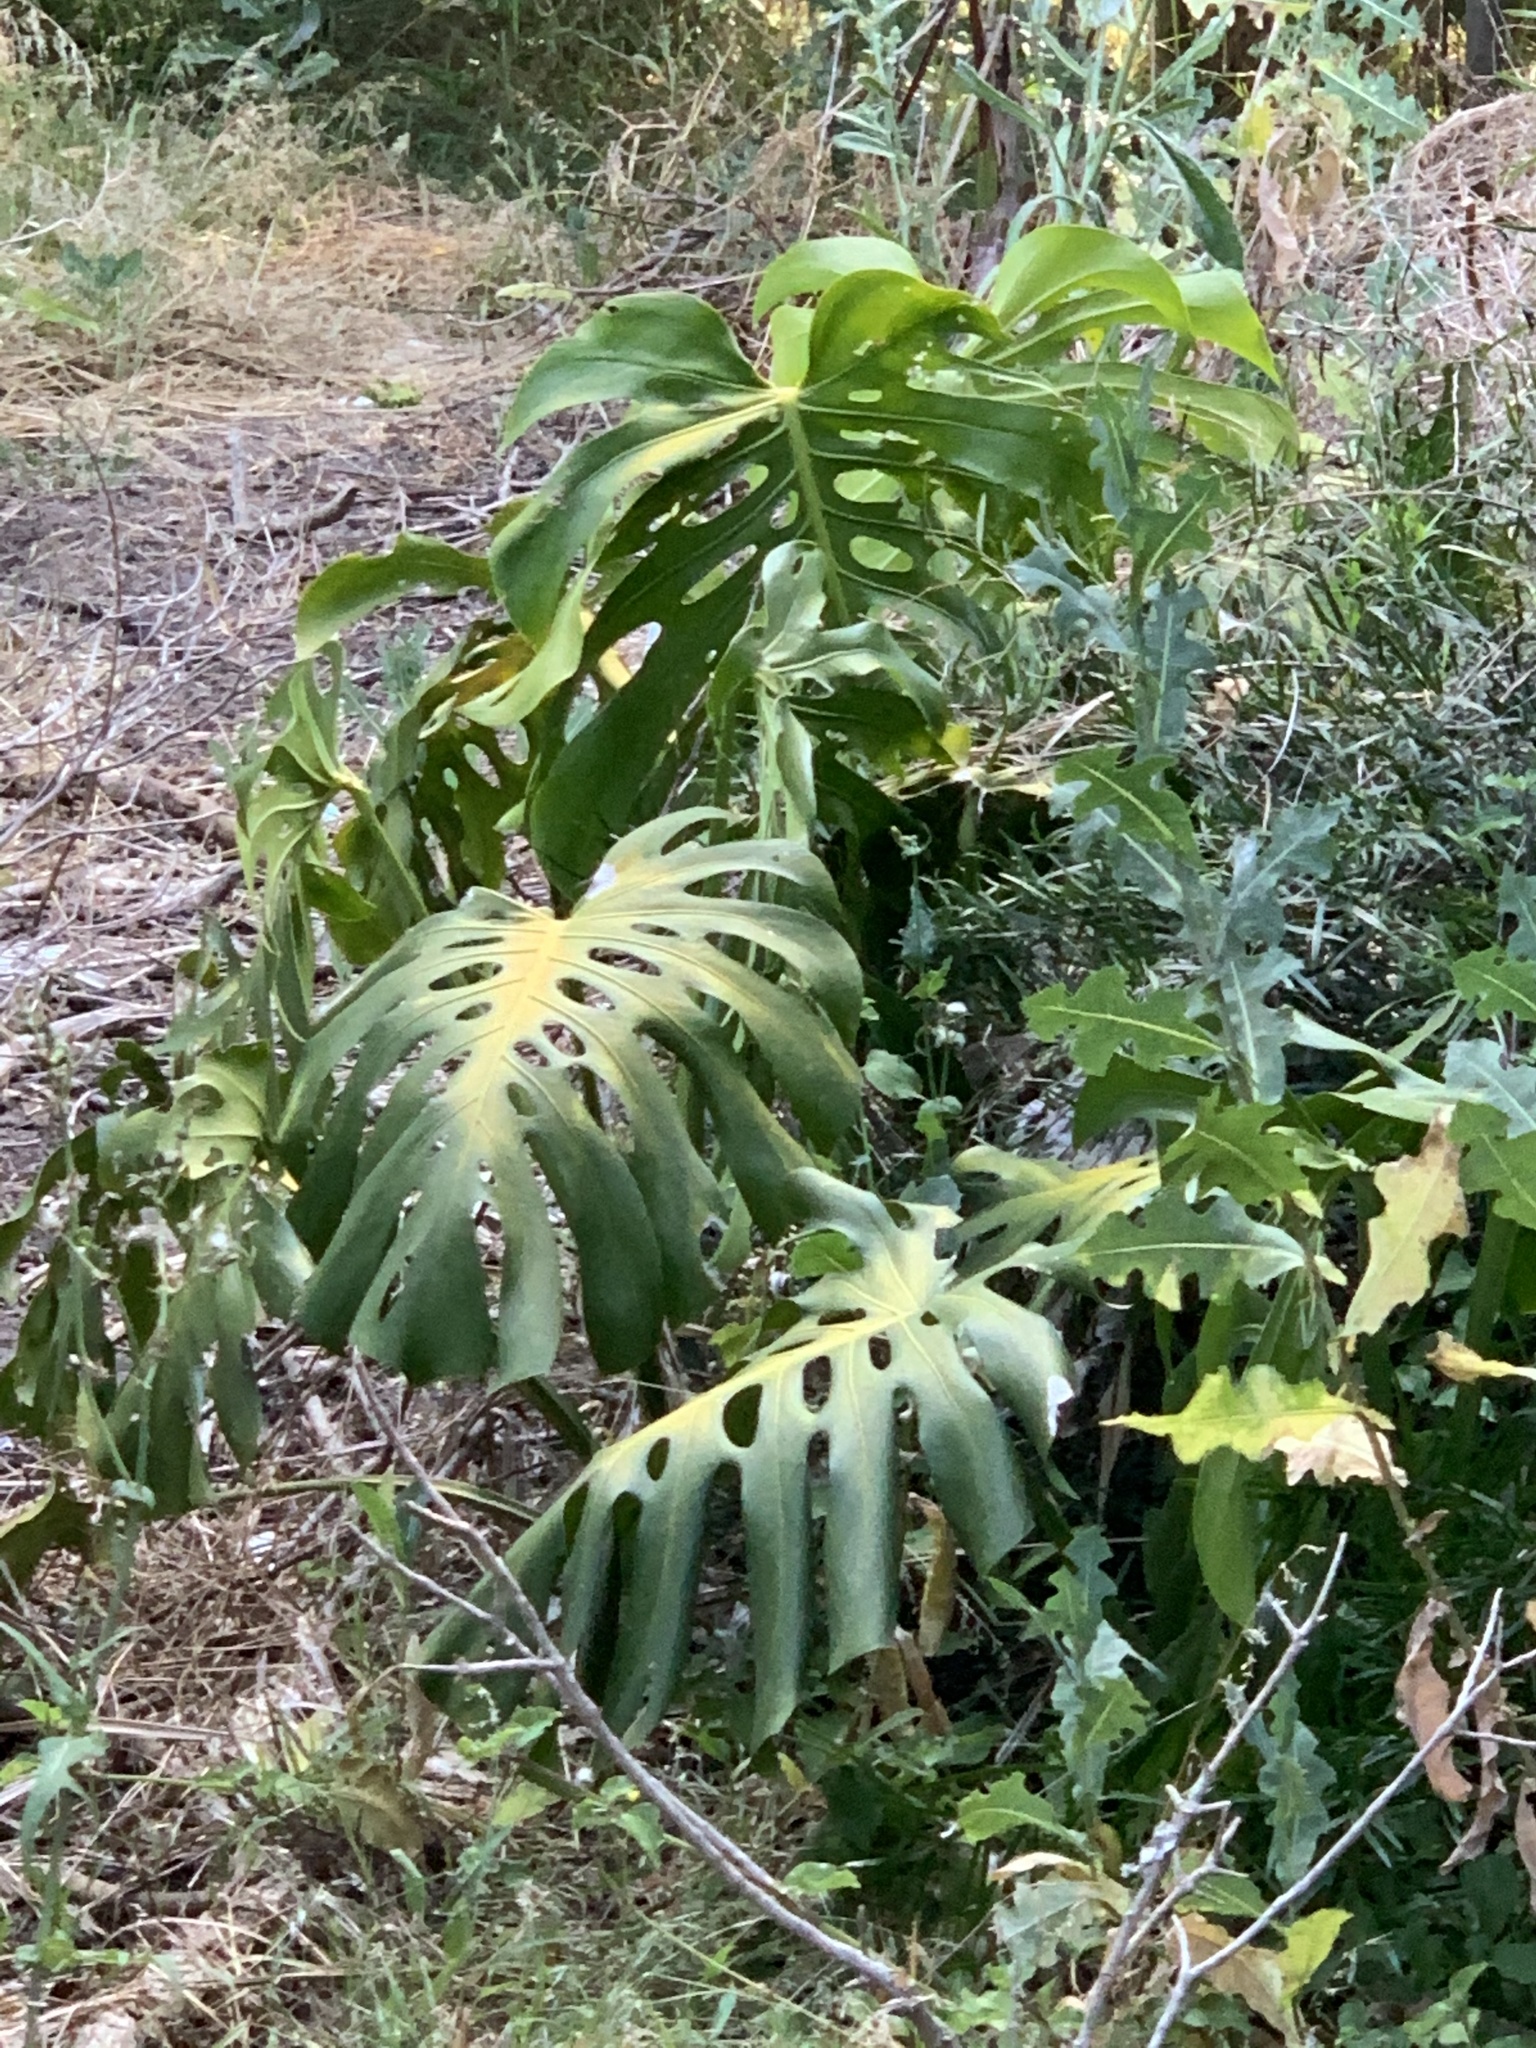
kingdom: Plantae
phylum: Tracheophyta
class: Liliopsida
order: Alismatales
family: Araceae
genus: Monstera
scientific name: Monstera deliciosa
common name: Cut-leaf-philodendron
